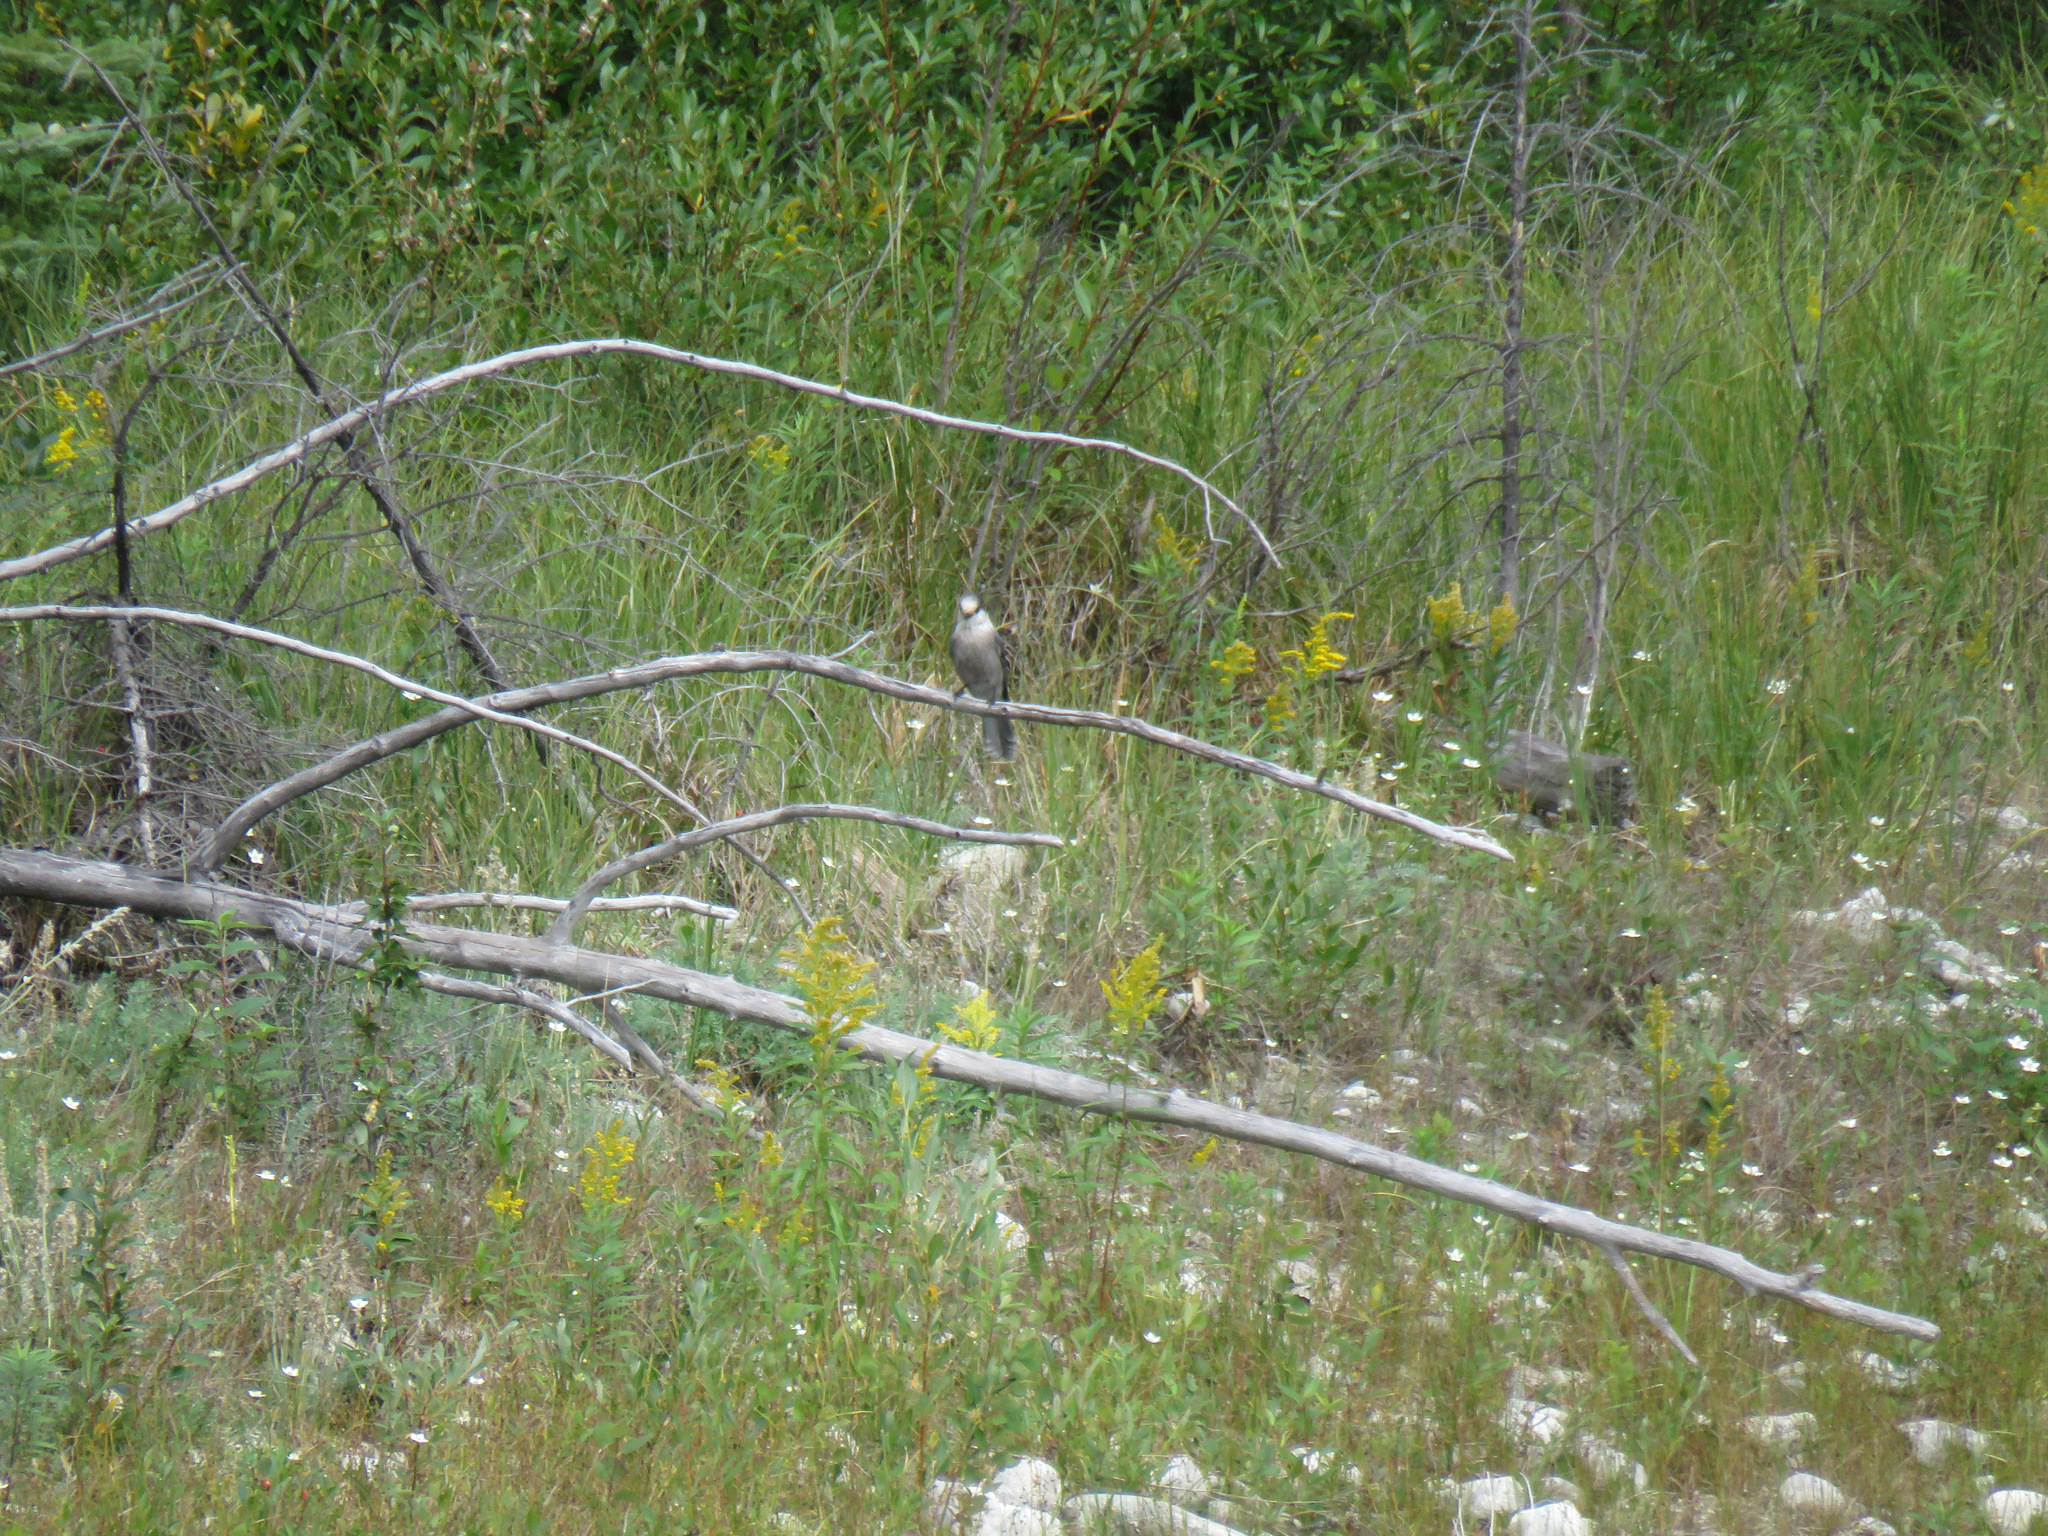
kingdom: Animalia
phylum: Chordata
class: Aves
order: Passeriformes
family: Corvidae
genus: Perisoreus
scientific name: Perisoreus canadensis
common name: Gray jay
